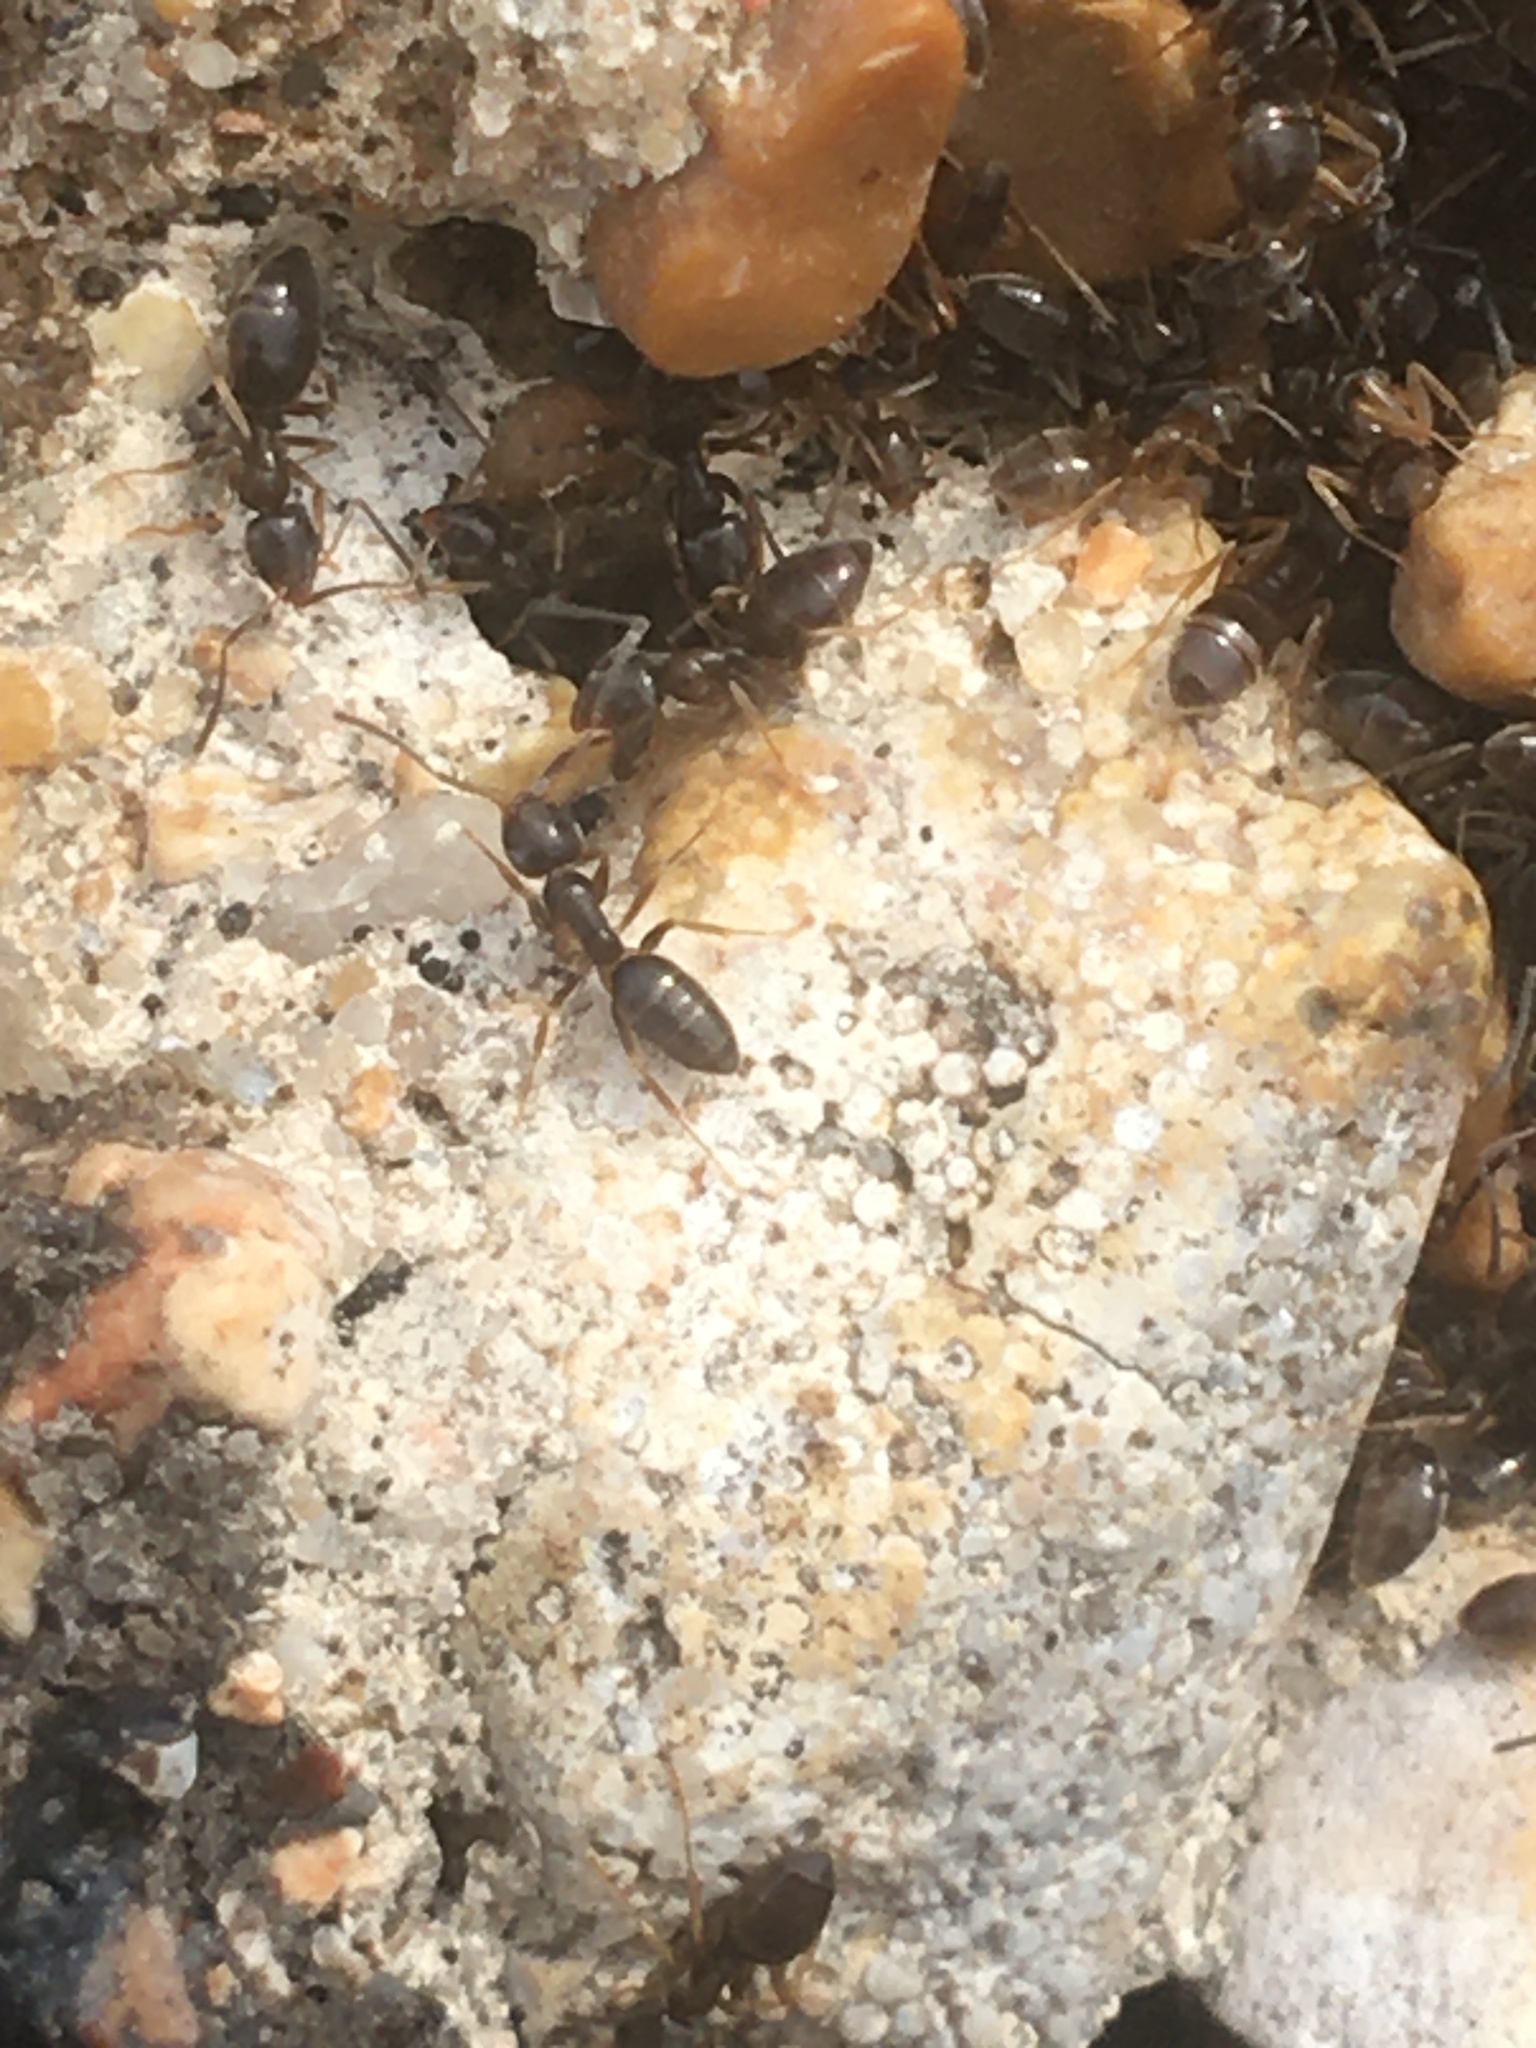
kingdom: Animalia
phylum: Arthropoda
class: Insecta
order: Hymenoptera
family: Formicidae
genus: Tapinoma
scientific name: Tapinoma sessile
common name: Odorous house ant
